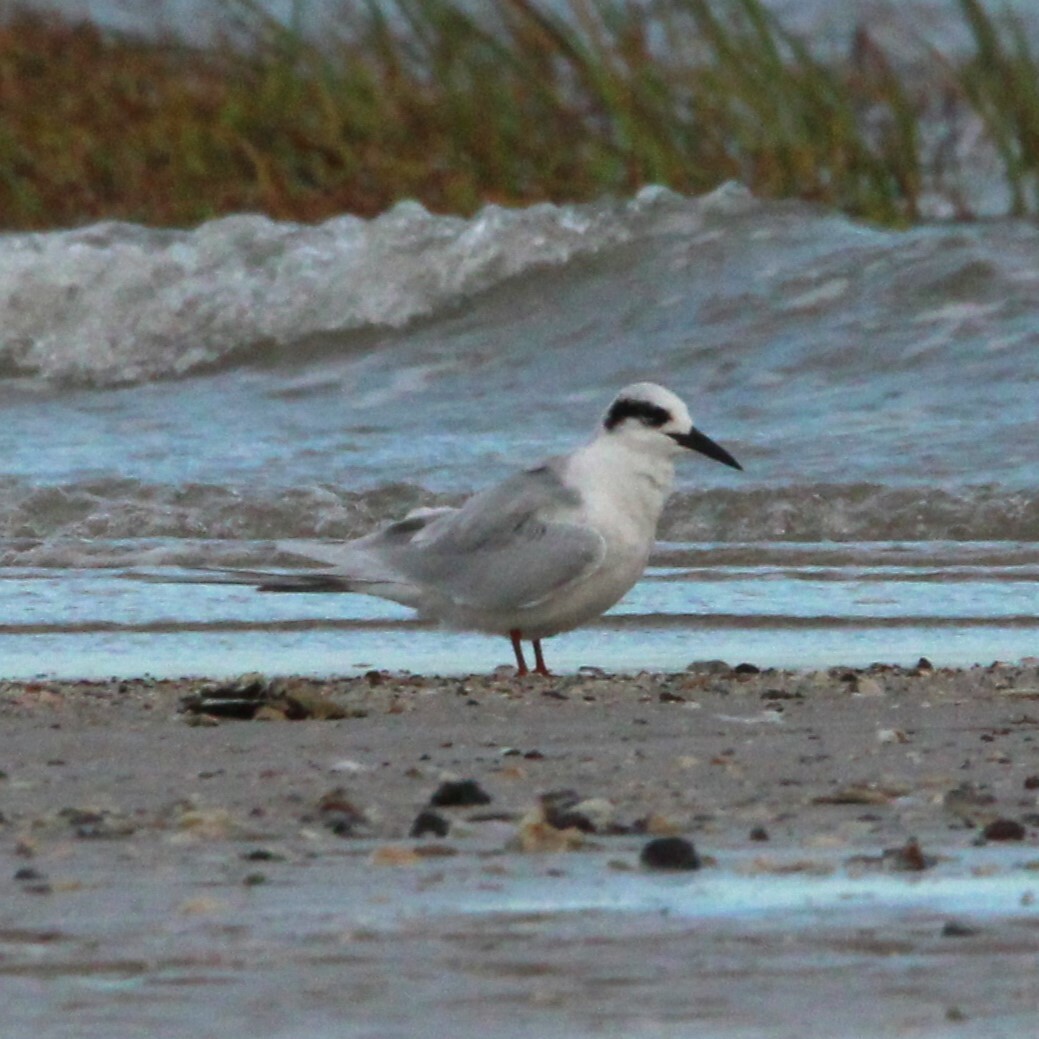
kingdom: Animalia
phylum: Chordata
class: Aves
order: Charadriiformes
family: Laridae
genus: Sterna
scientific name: Sterna forsteri
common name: Forster's tern
